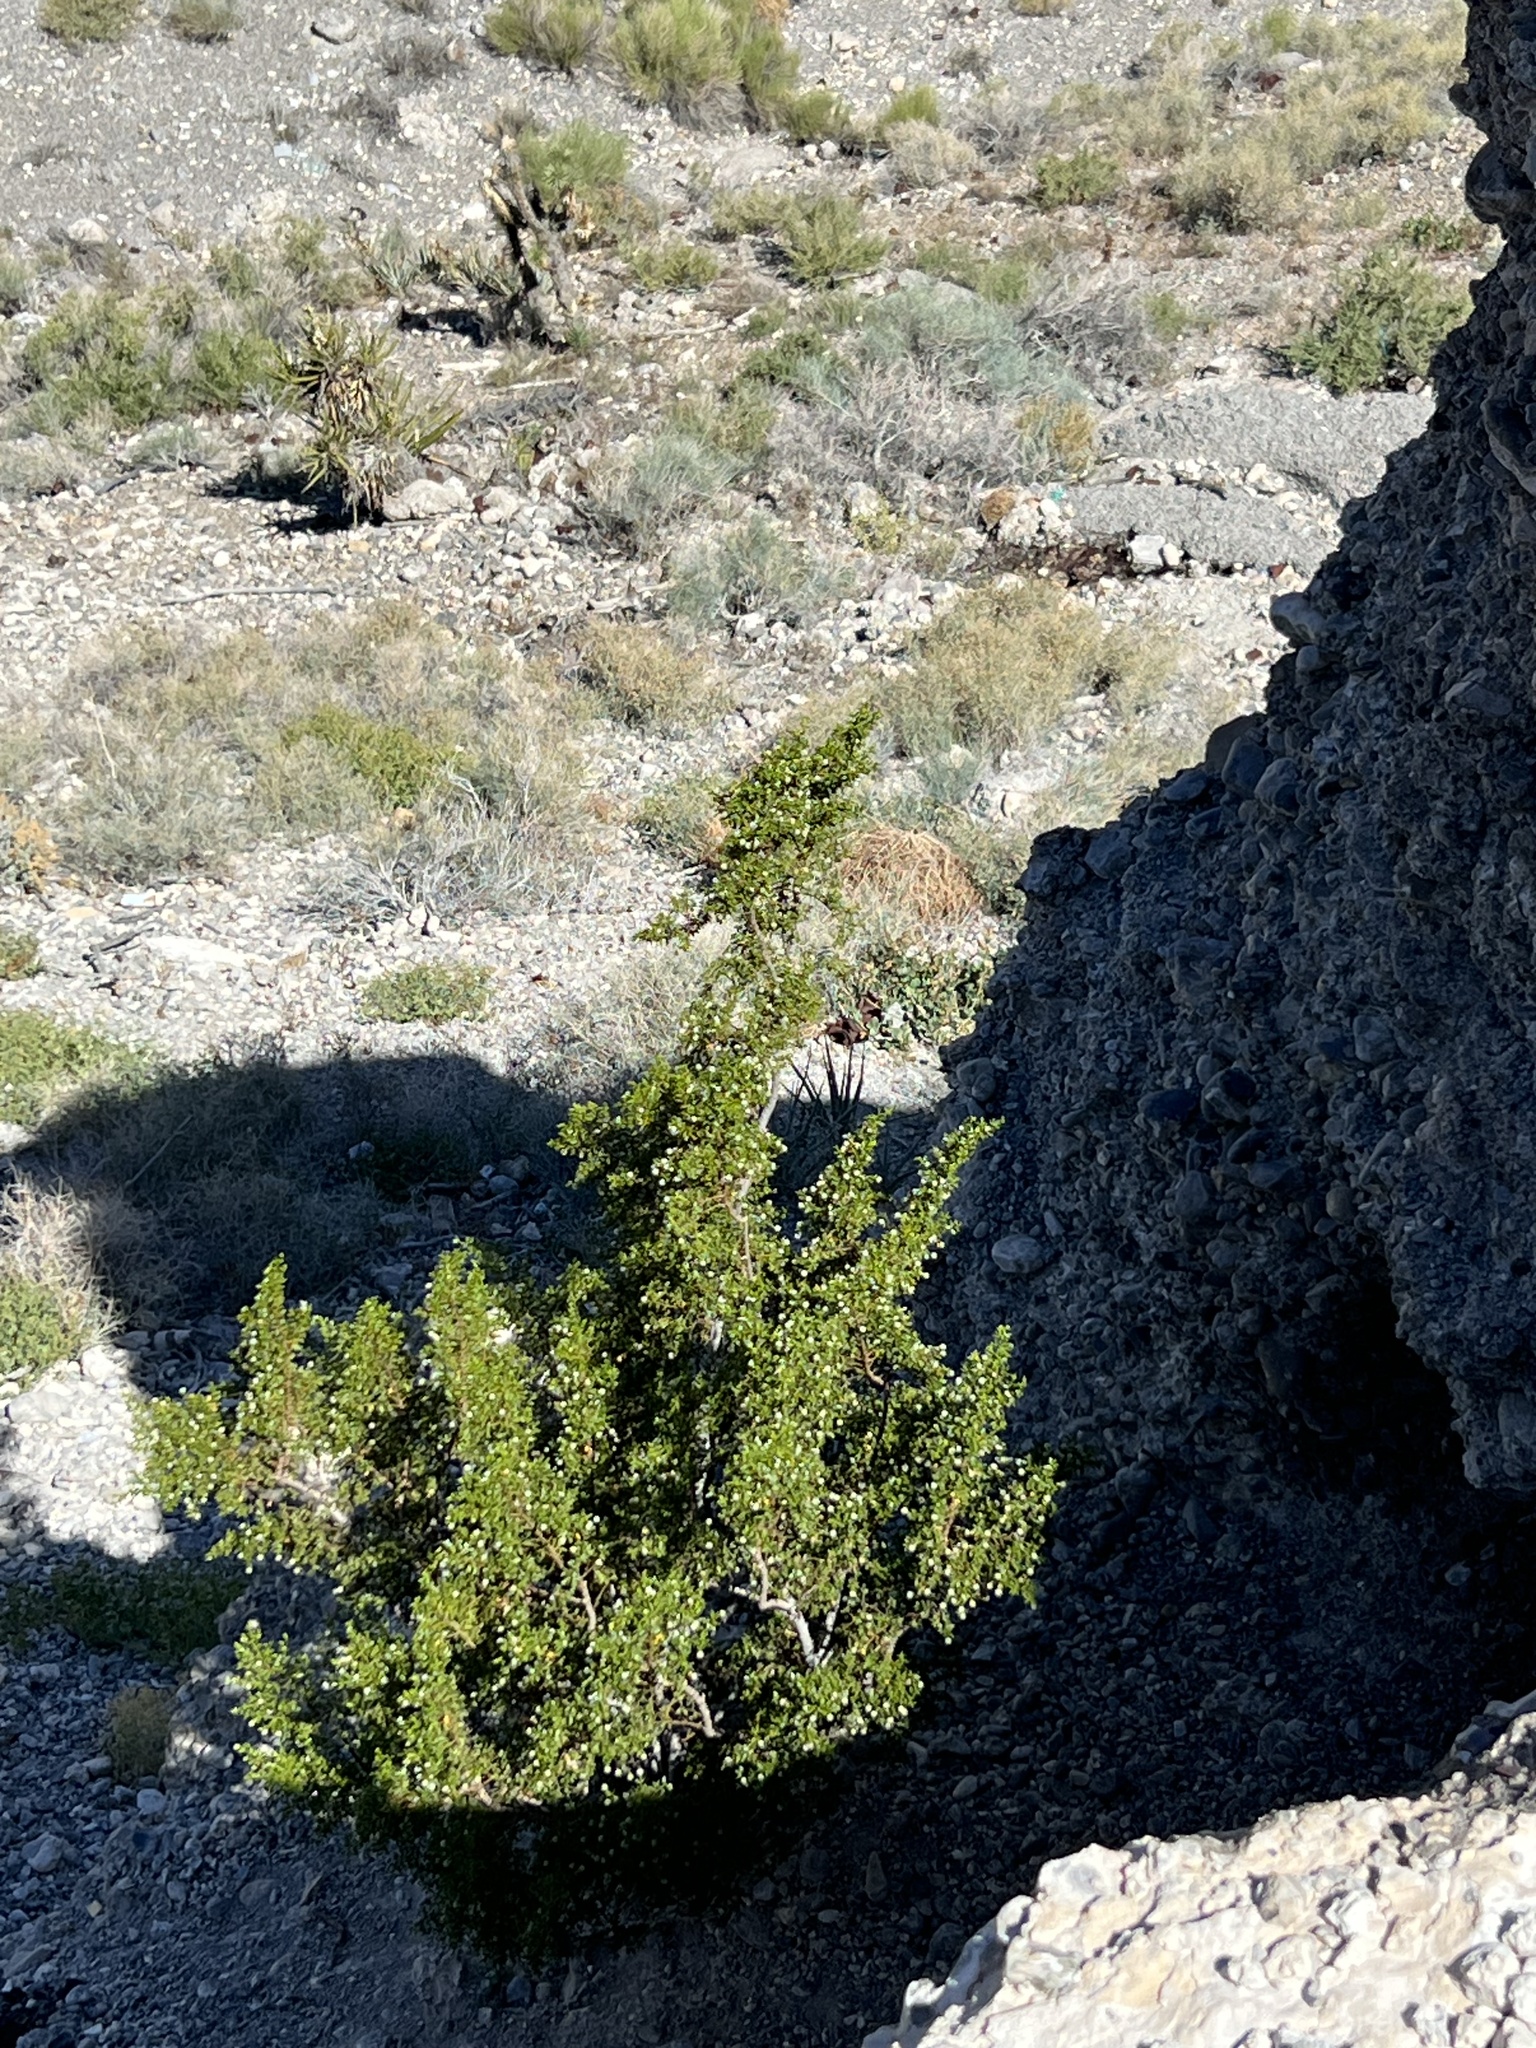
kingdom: Plantae
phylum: Tracheophyta
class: Magnoliopsida
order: Zygophyllales
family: Zygophyllaceae
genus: Larrea
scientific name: Larrea tridentata
